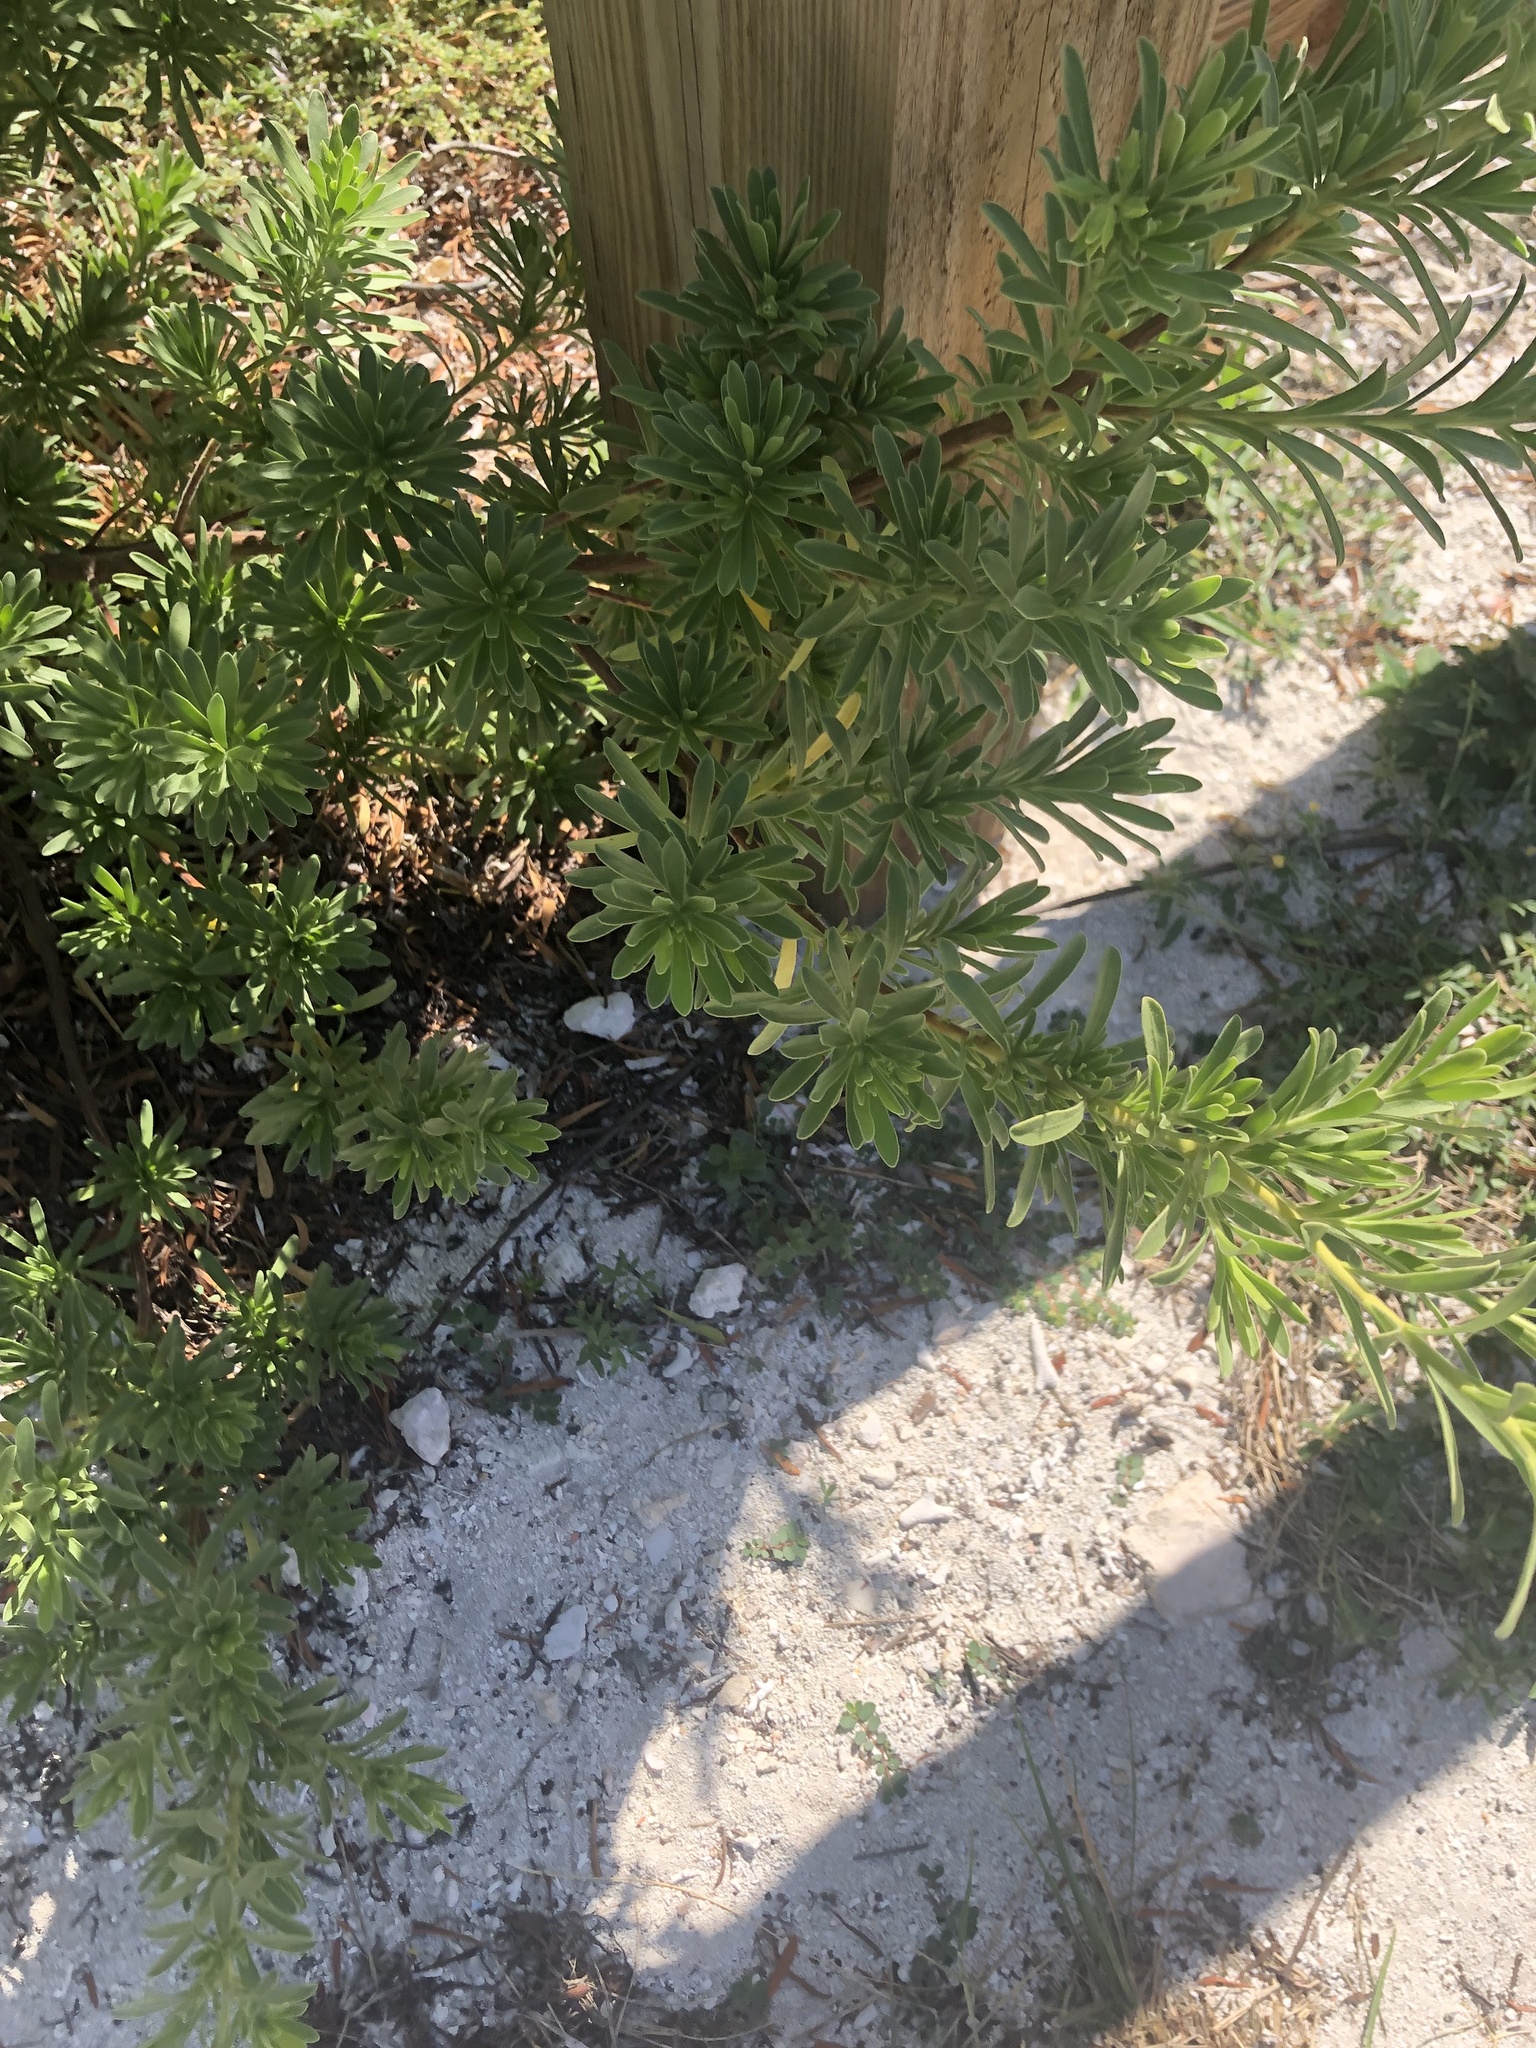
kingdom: Plantae
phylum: Tracheophyta
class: Magnoliopsida
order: Fabales
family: Surianaceae
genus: Suriana
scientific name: Suriana maritima
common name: Bay-cedar
